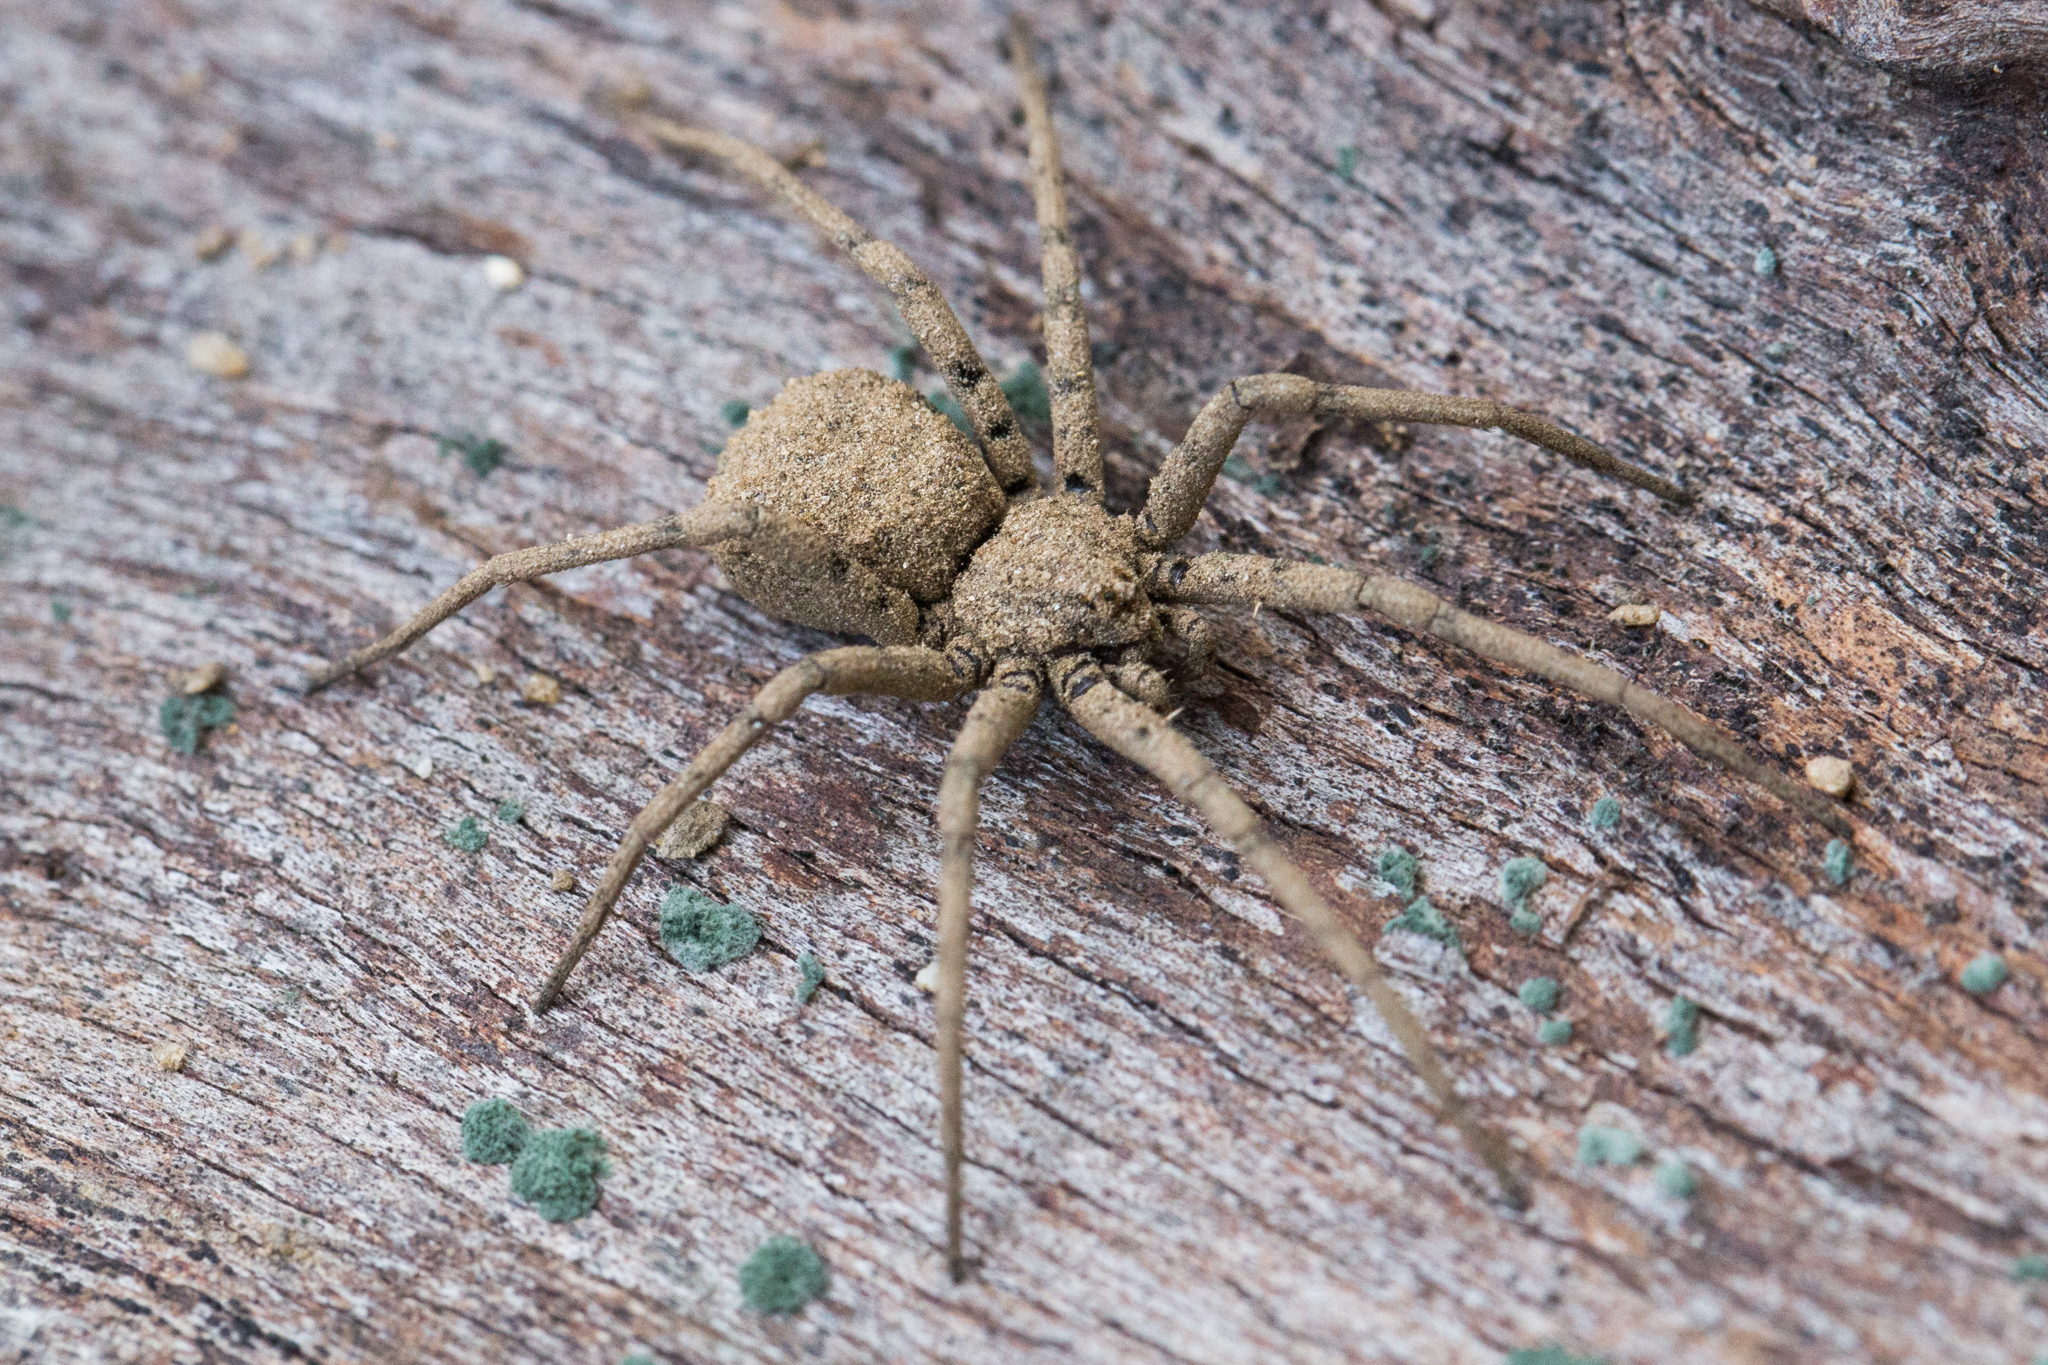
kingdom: Animalia
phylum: Arthropoda
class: Arachnida
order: Araneae
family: Homalonychidae
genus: Homalonychus
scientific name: Homalonychus theologus
